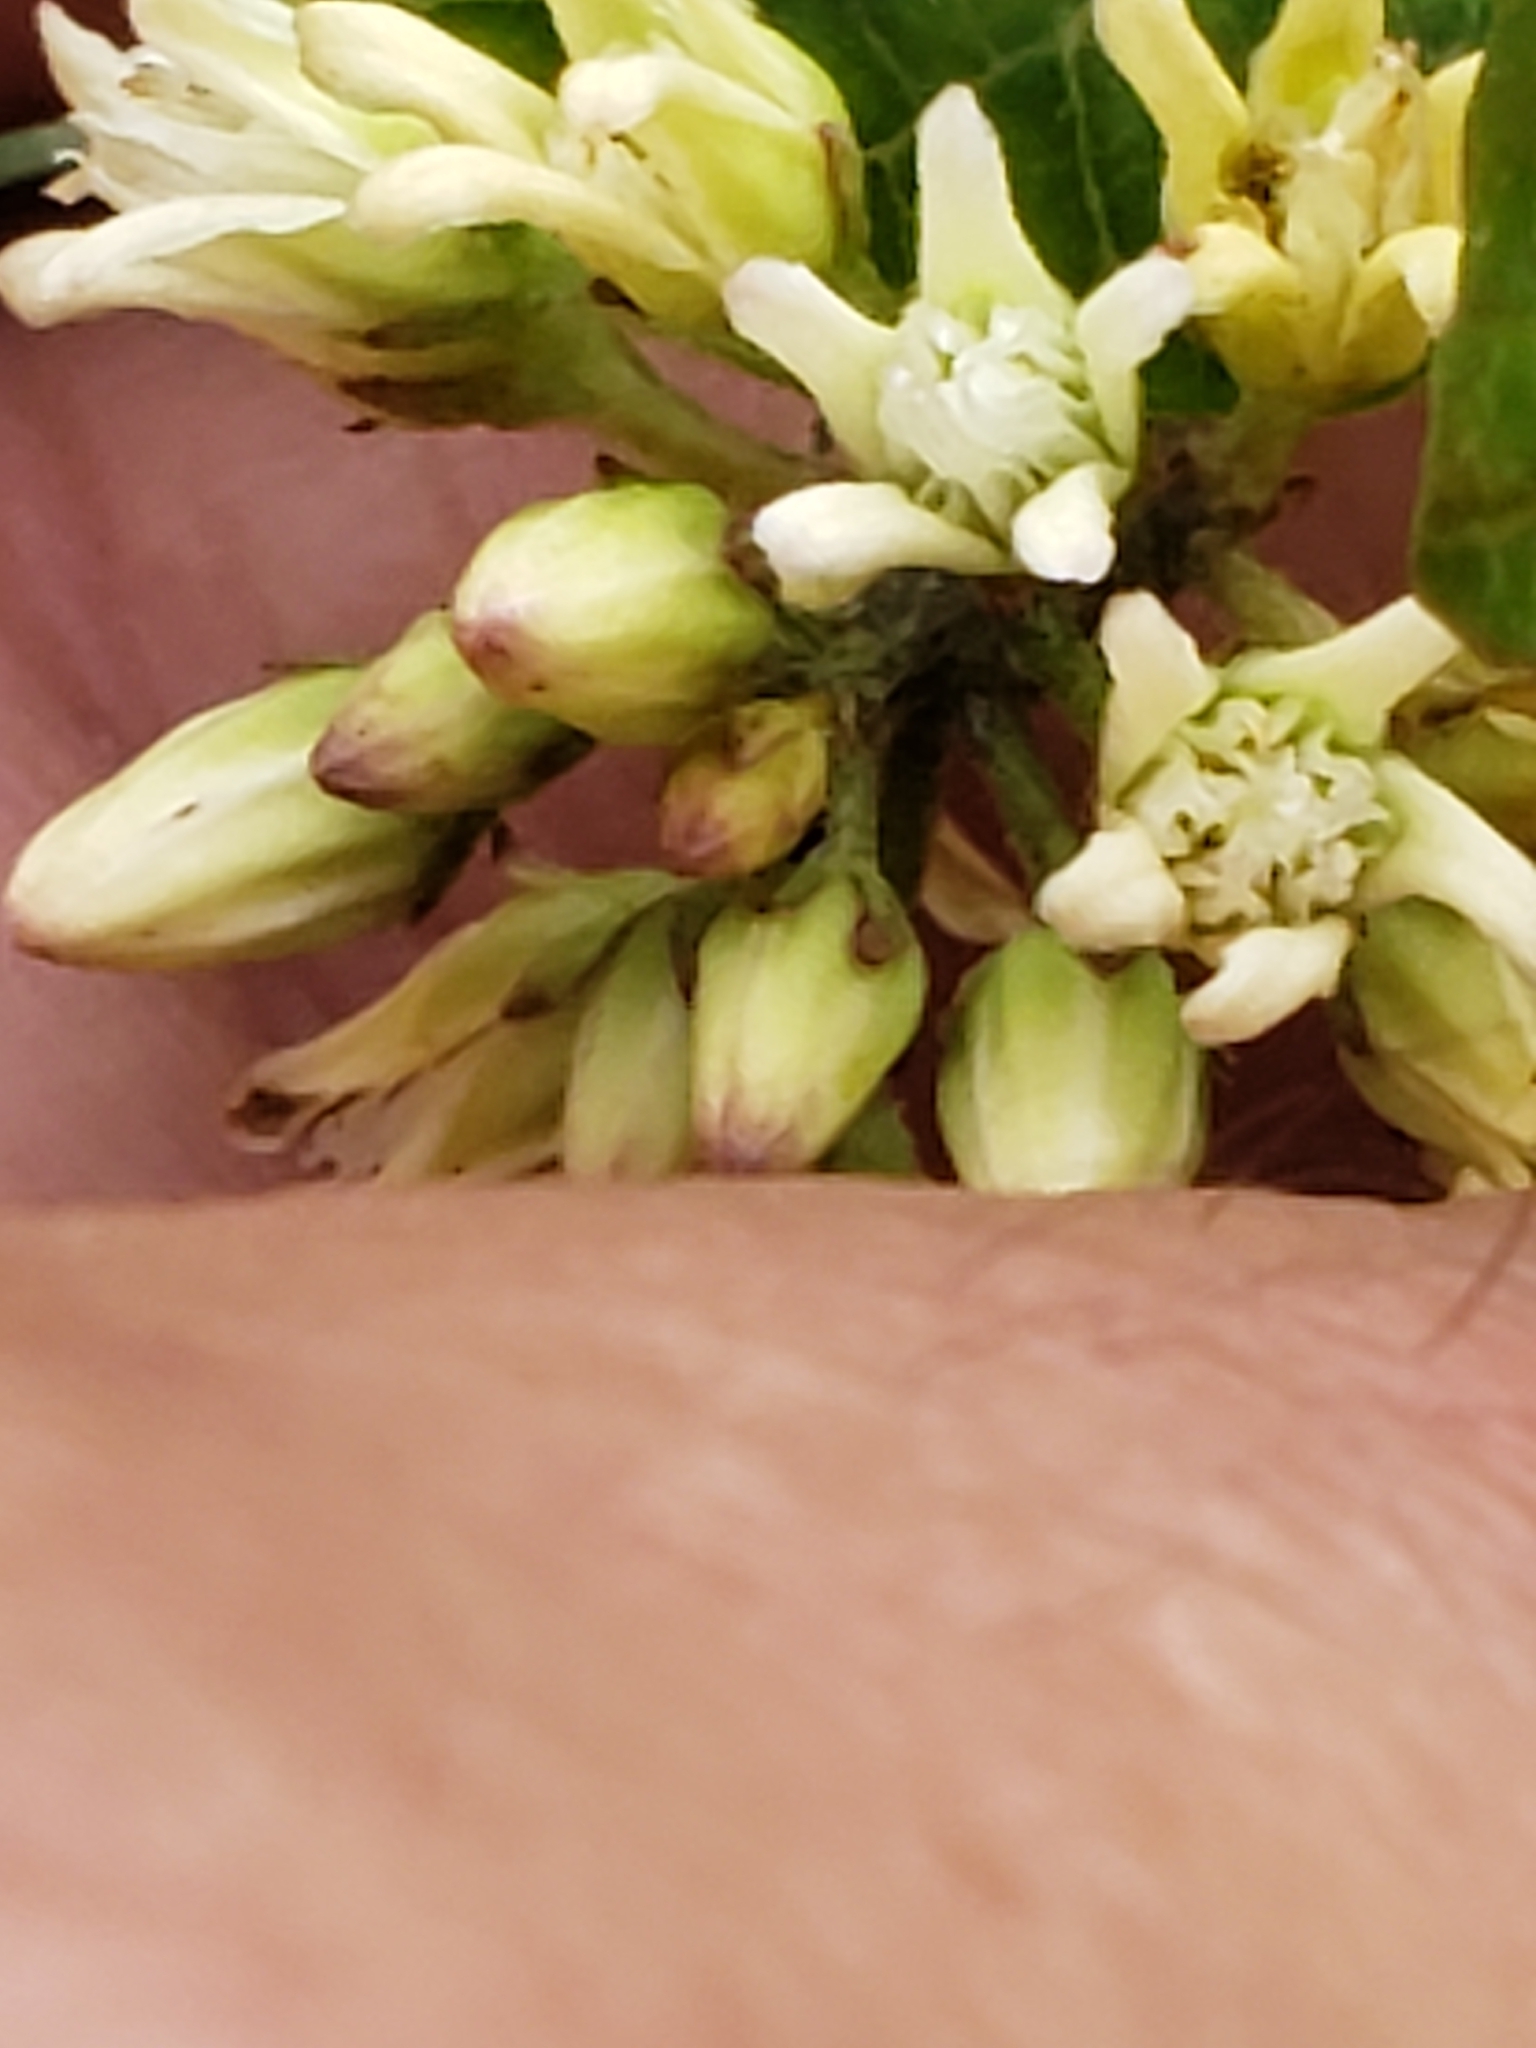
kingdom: Plantae
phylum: Tracheophyta
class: Magnoliopsida
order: Gentianales
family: Apocynaceae
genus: Cynanchum
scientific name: Cynanchum laeve
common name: Sandvine
